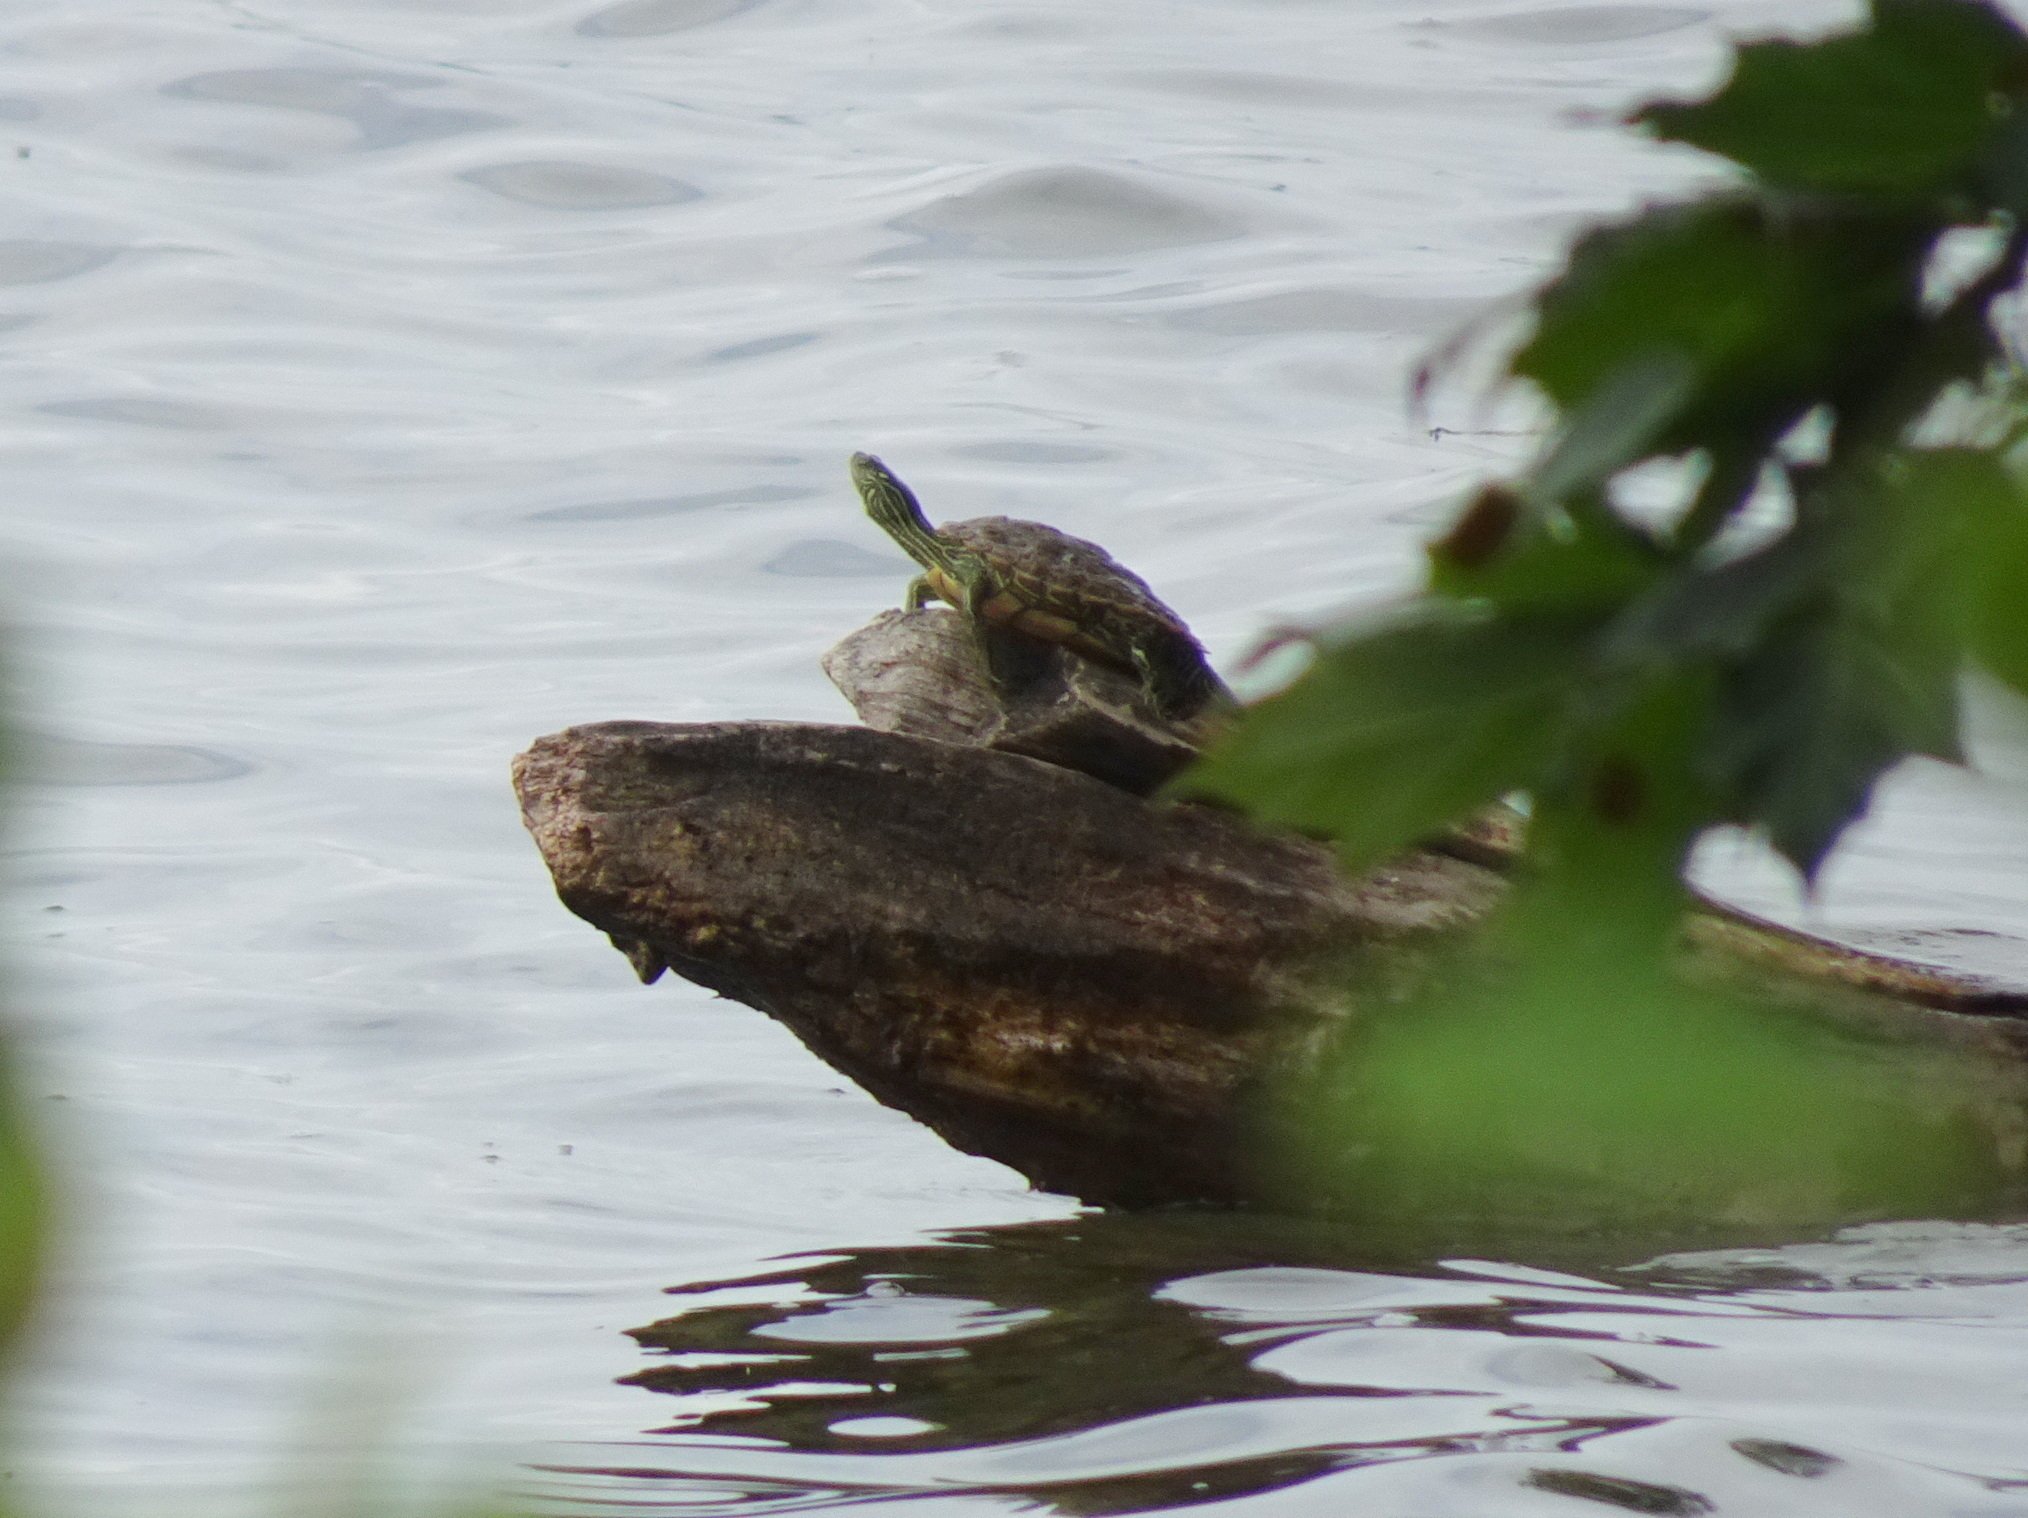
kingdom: Animalia
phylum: Chordata
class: Testudines
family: Emydidae
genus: Graptemys
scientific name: Graptemys geographica
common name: Common map turtle
